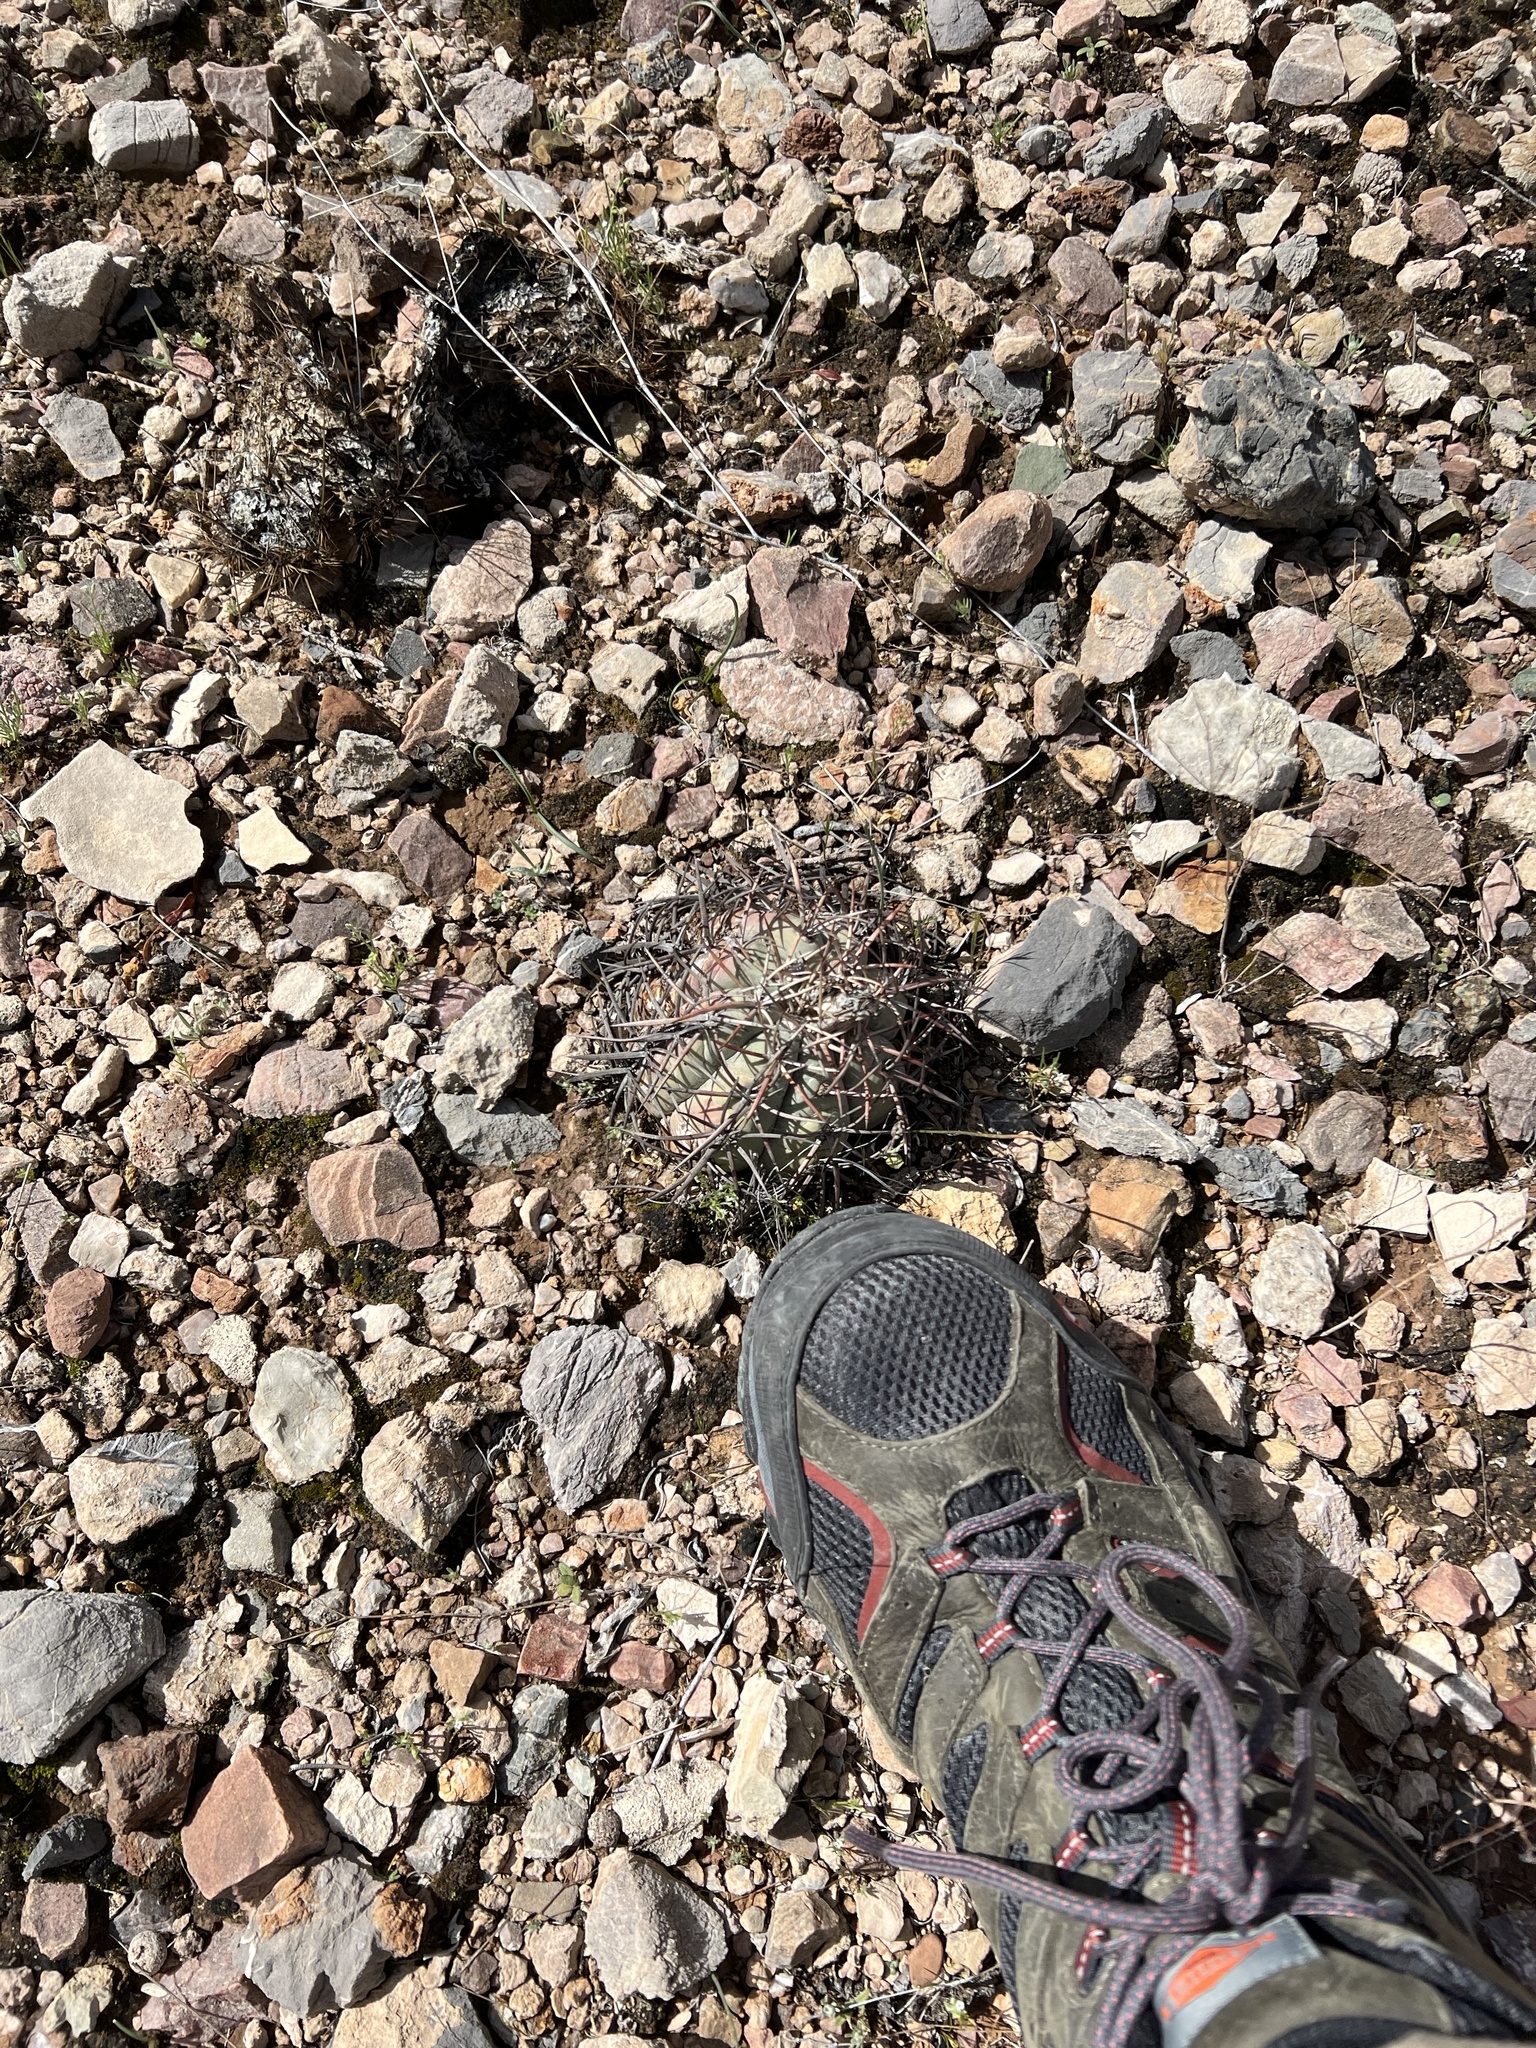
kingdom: Plantae
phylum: Tracheophyta
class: Magnoliopsida
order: Caryophyllales
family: Cactaceae
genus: Echinocactus
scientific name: Echinocactus horizonthalonius
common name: Devilshead
